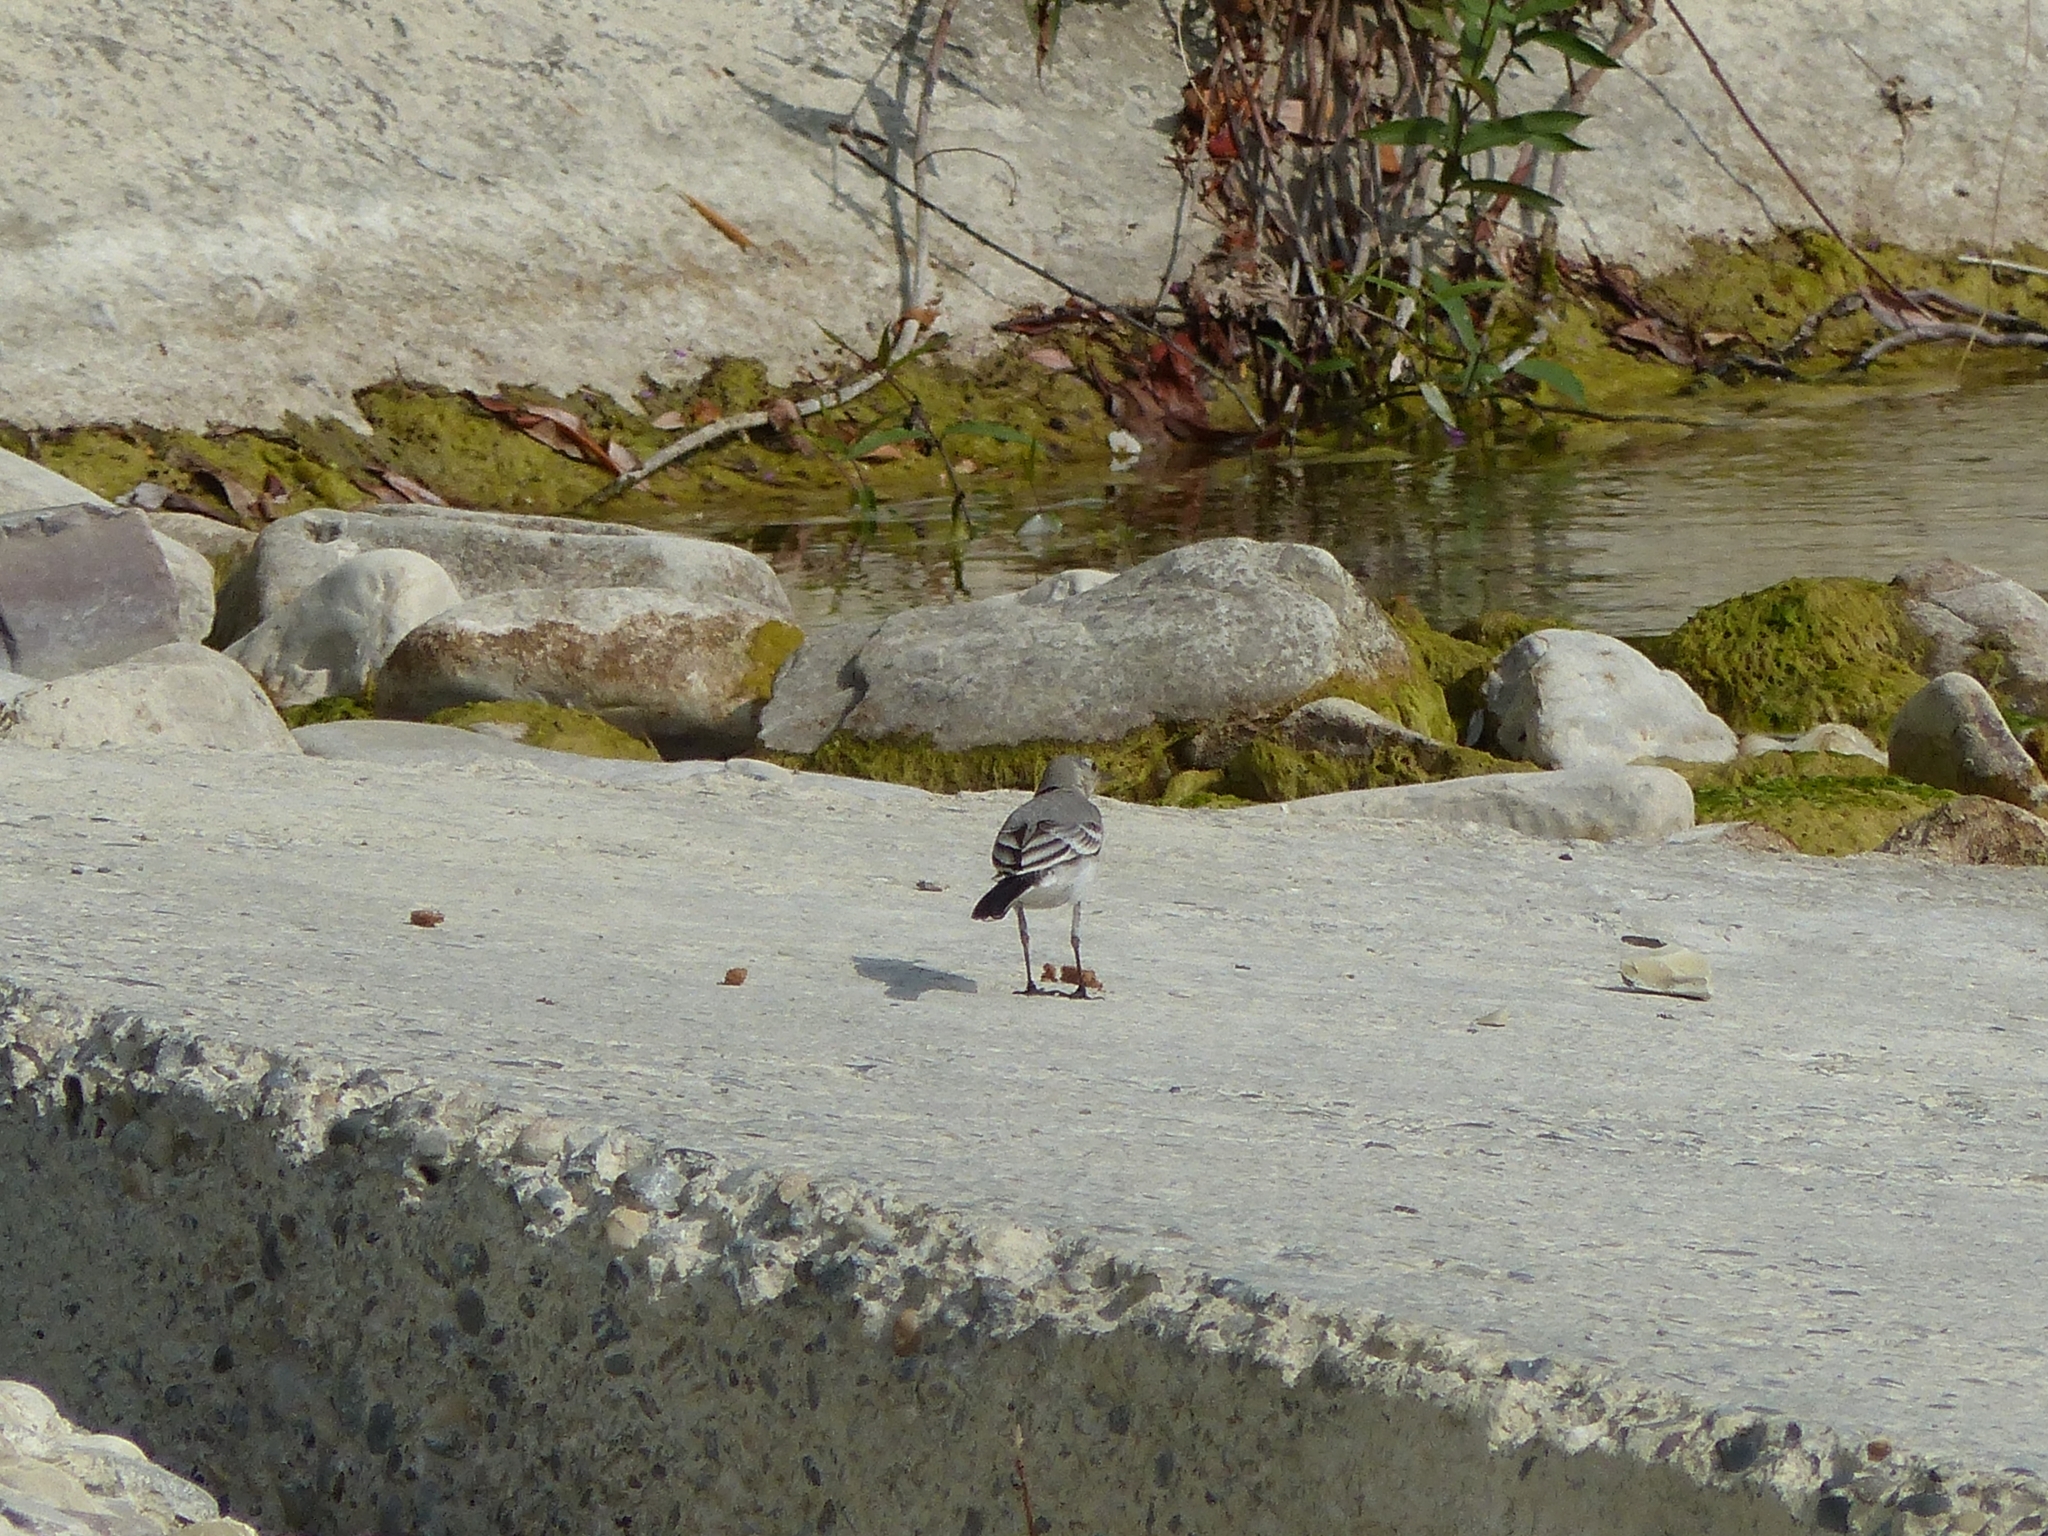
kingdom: Animalia
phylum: Chordata
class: Aves
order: Passeriformes
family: Motacillidae
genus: Motacilla
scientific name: Motacilla alba
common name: White wagtail
